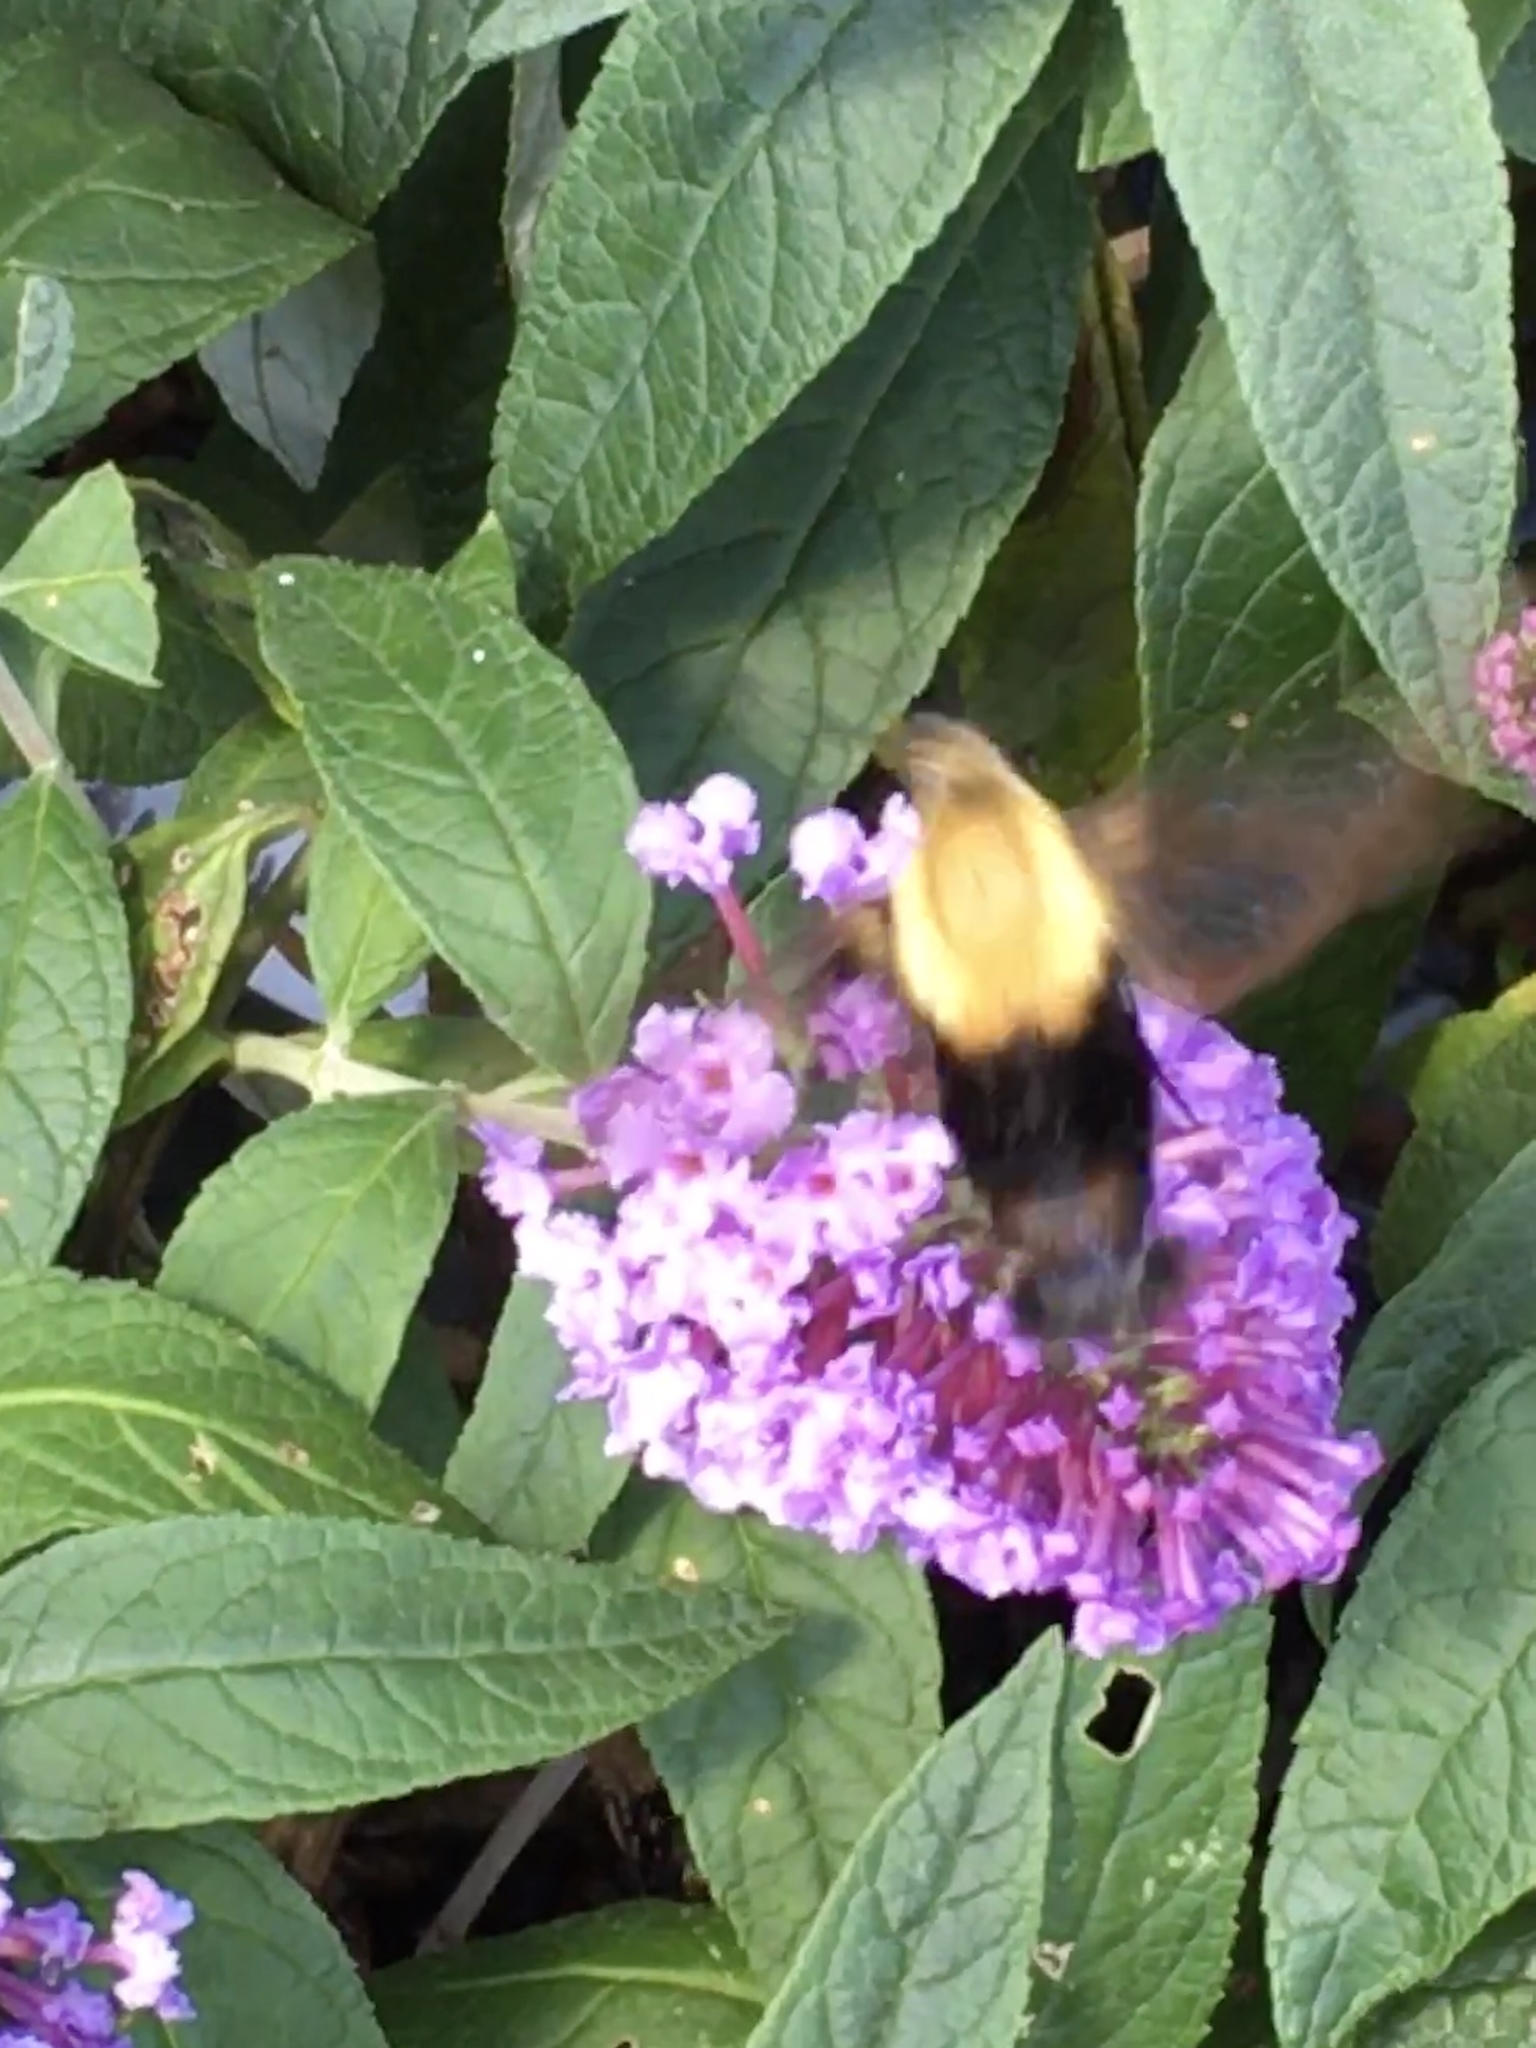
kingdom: Animalia
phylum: Arthropoda
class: Insecta
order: Lepidoptera
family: Sphingidae
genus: Hemaris
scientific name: Hemaris diffinis
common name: Bumblebee moth
